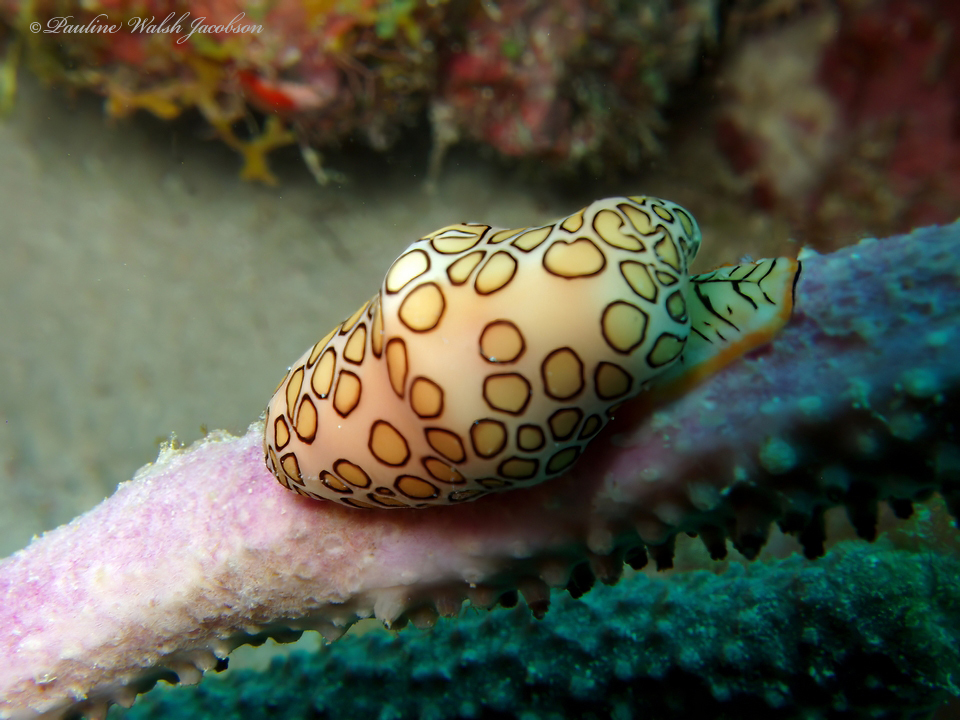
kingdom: Animalia
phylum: Mollusca
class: Gastropoda
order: Littorinimorpha
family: Ovulidae
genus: Cyphoma
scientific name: Cyphoma gibbosum
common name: Flamingo tongue
